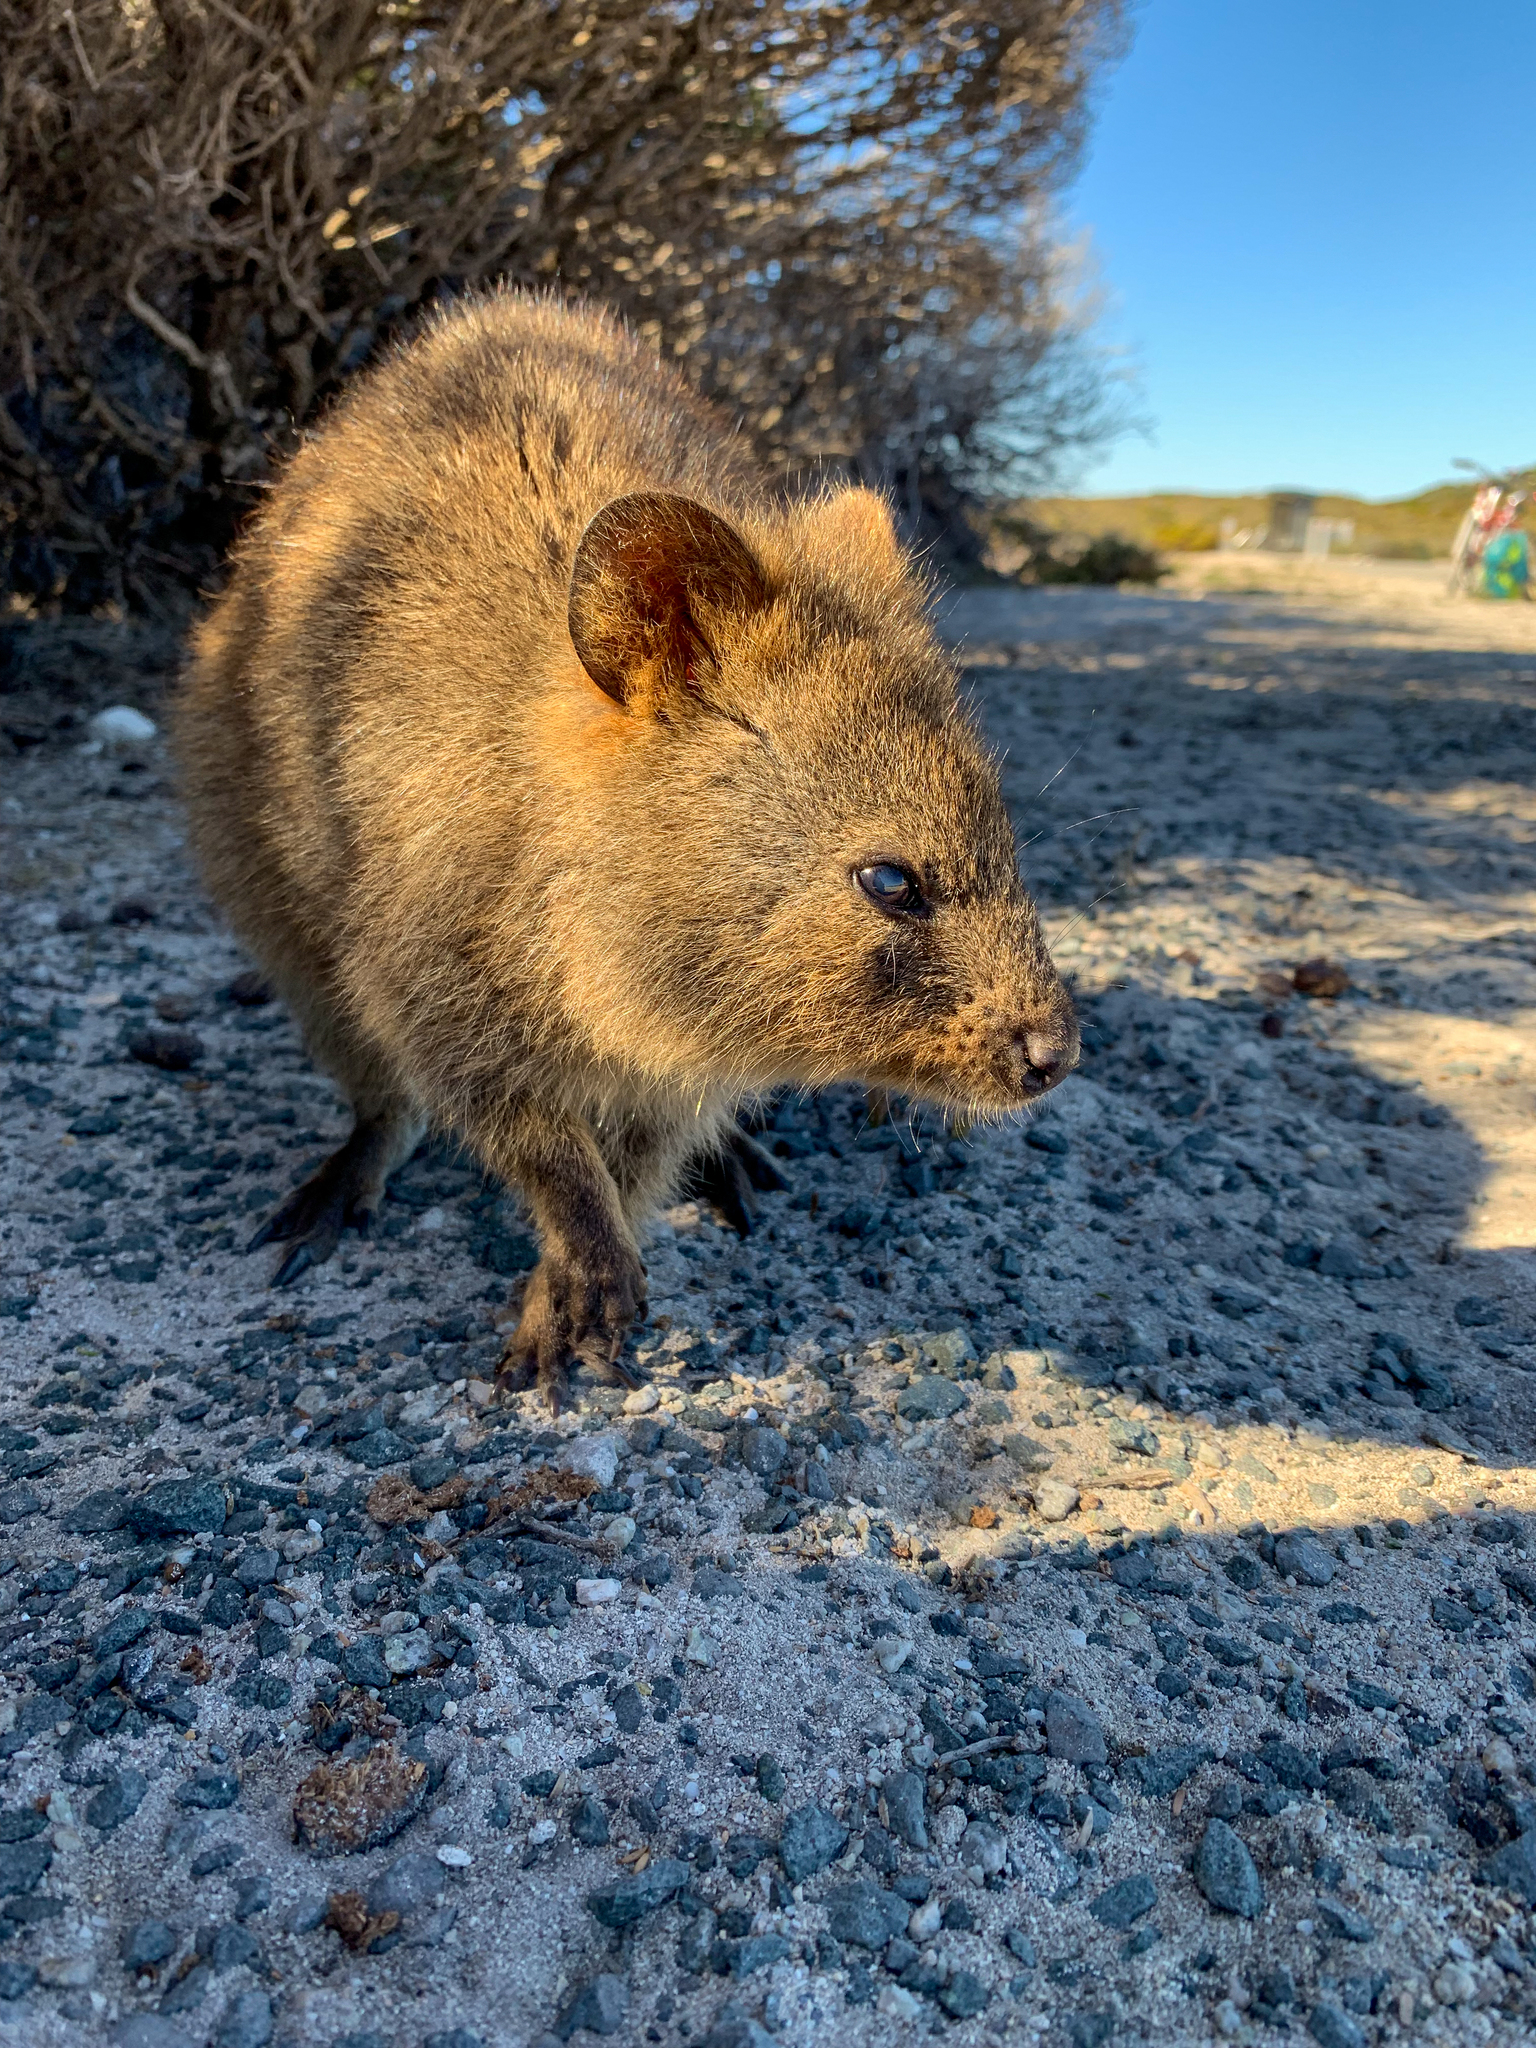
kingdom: Animalia
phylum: Chordata
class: Mammalia
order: Diprotodontia
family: Macropodidae
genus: Setonix
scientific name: Setonix brachyurus
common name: Quokka
